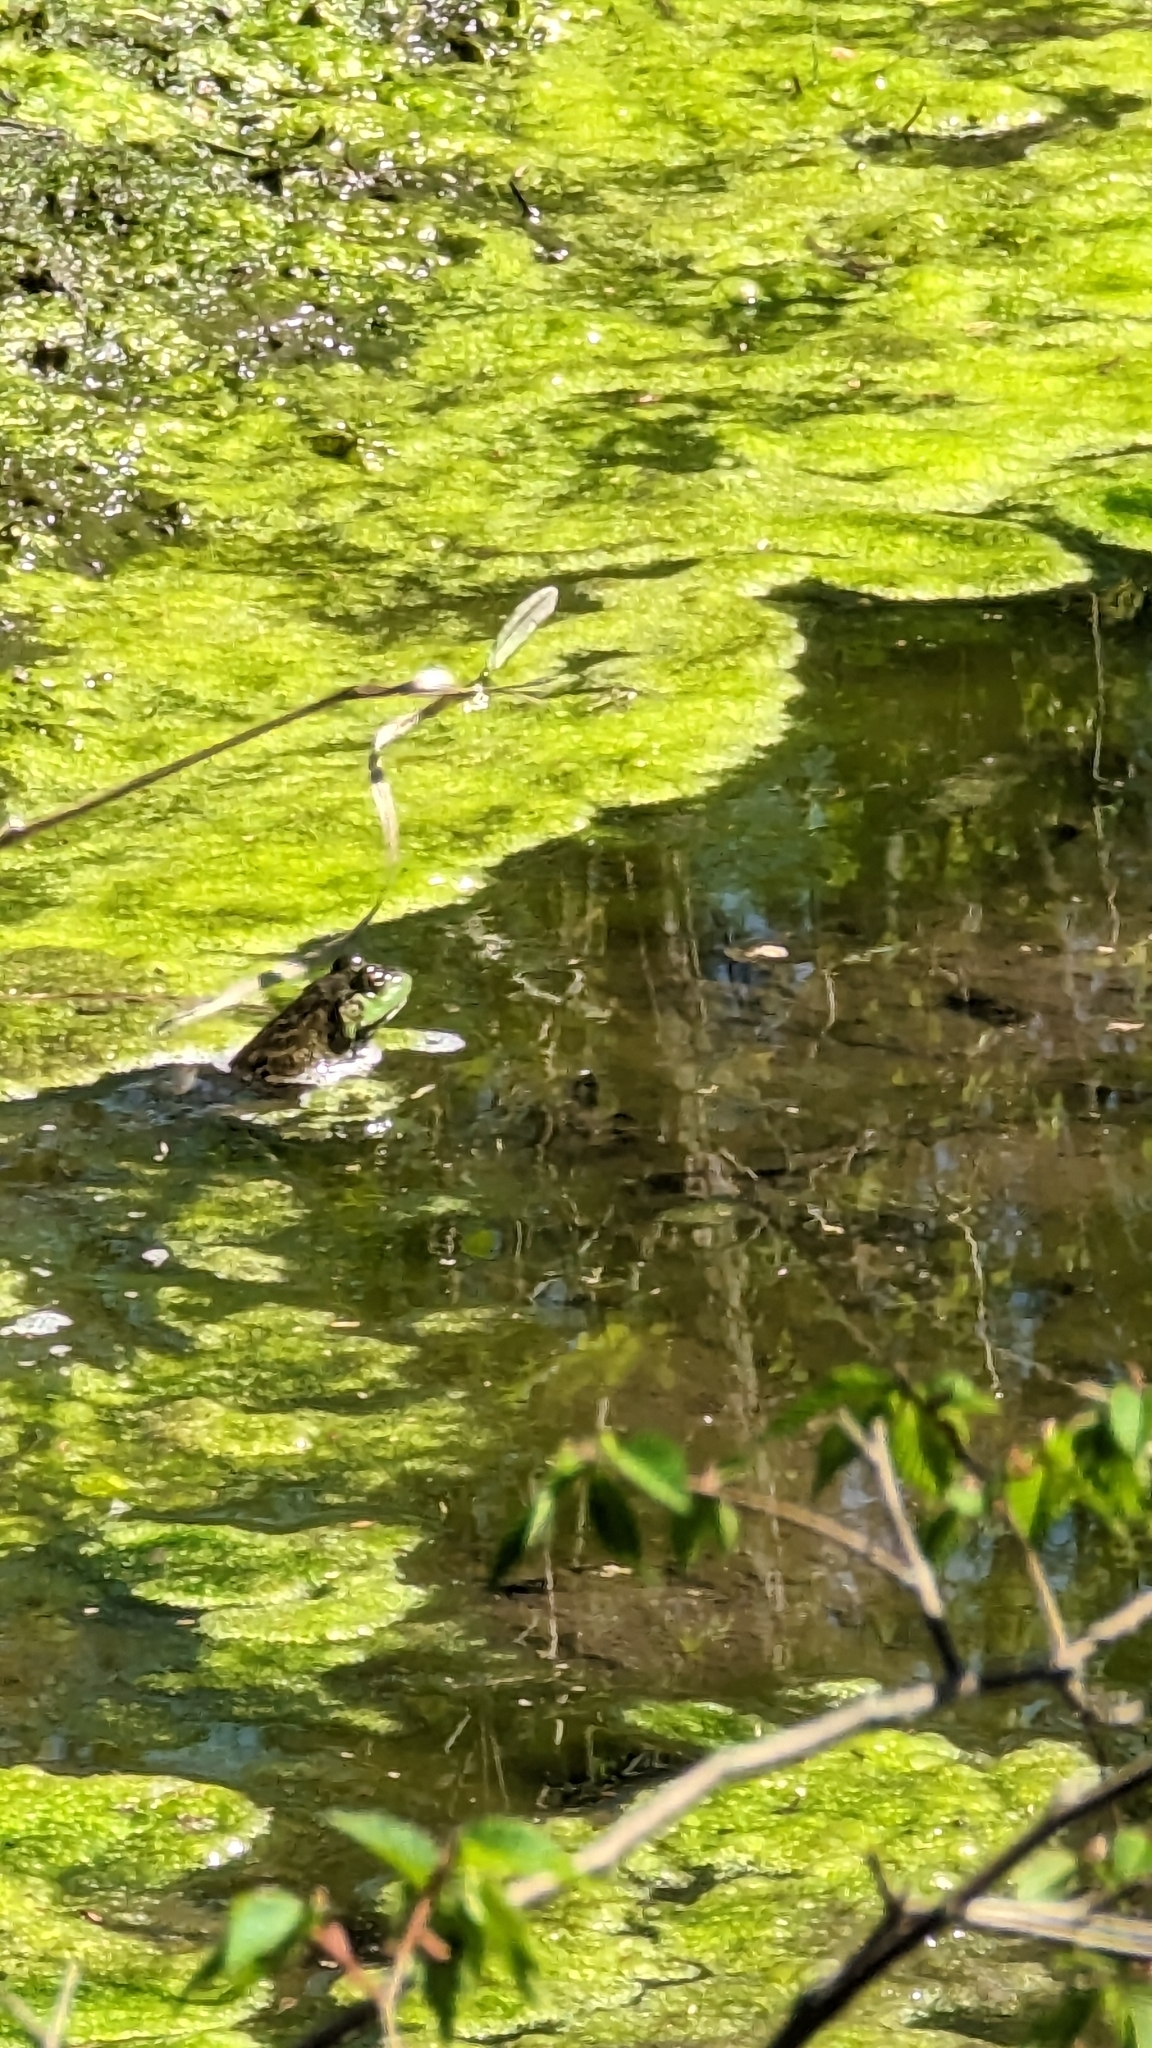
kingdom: Animalia
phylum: Chordata
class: Amphibia
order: Anura
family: Ranidae
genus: Lithobates
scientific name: Lithobates catesbeianus
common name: American bullfrog
